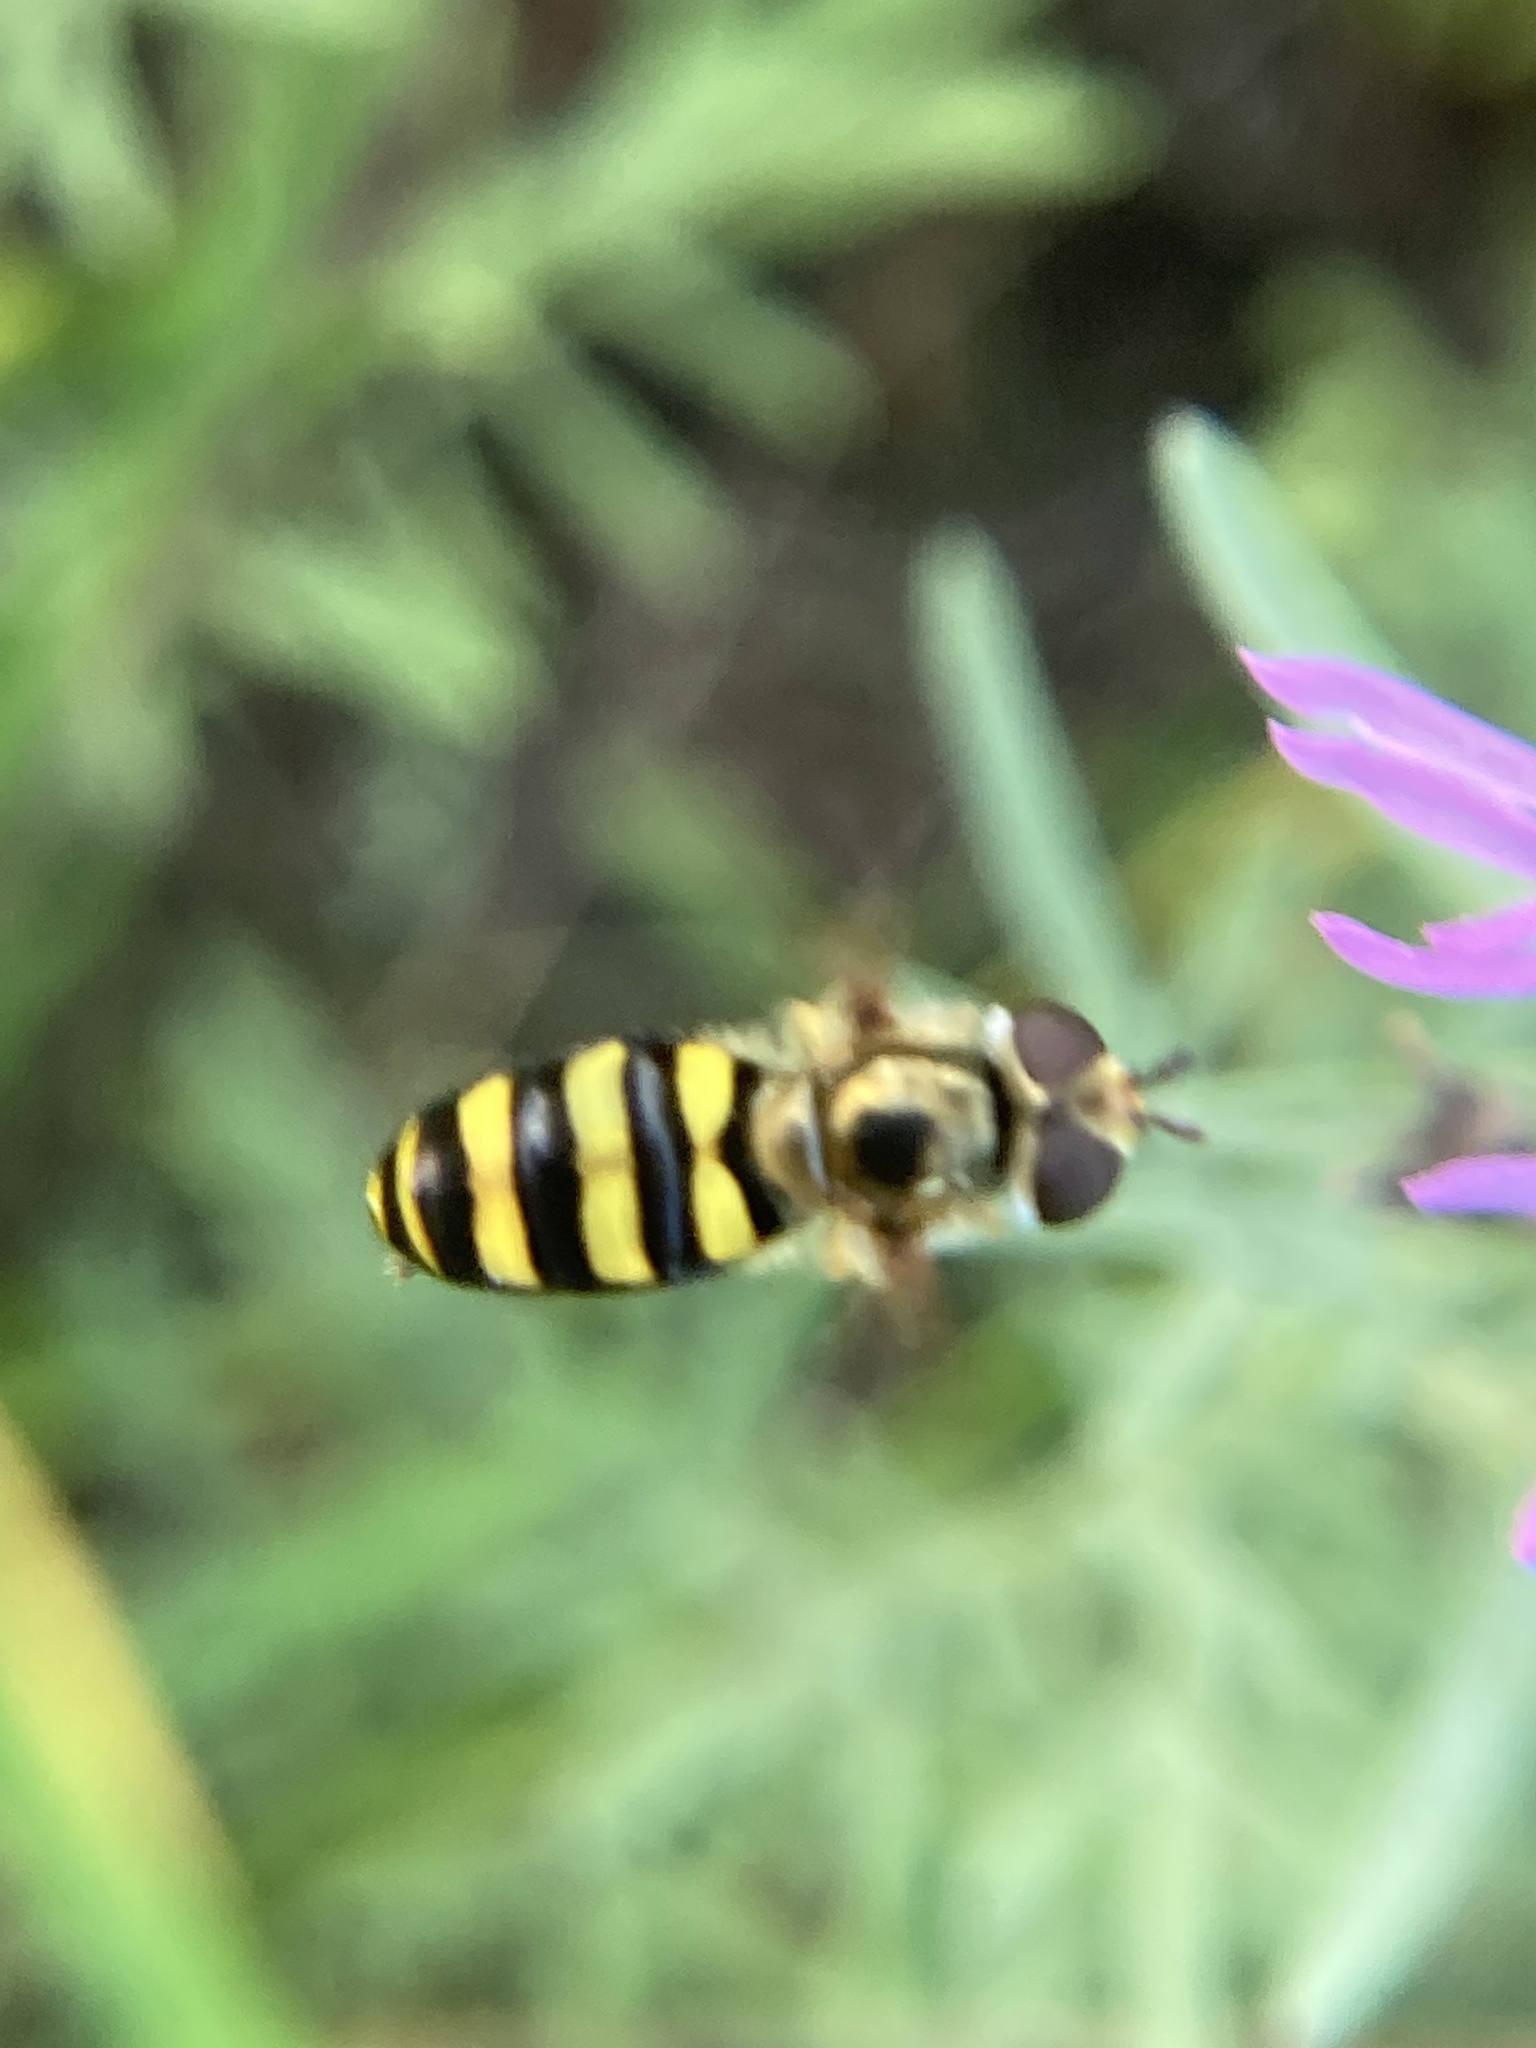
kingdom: Animalia
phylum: Arthropoda
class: Insecta
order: Diptera
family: Syrphidae
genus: Eupeodes
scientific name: Eupeodes
